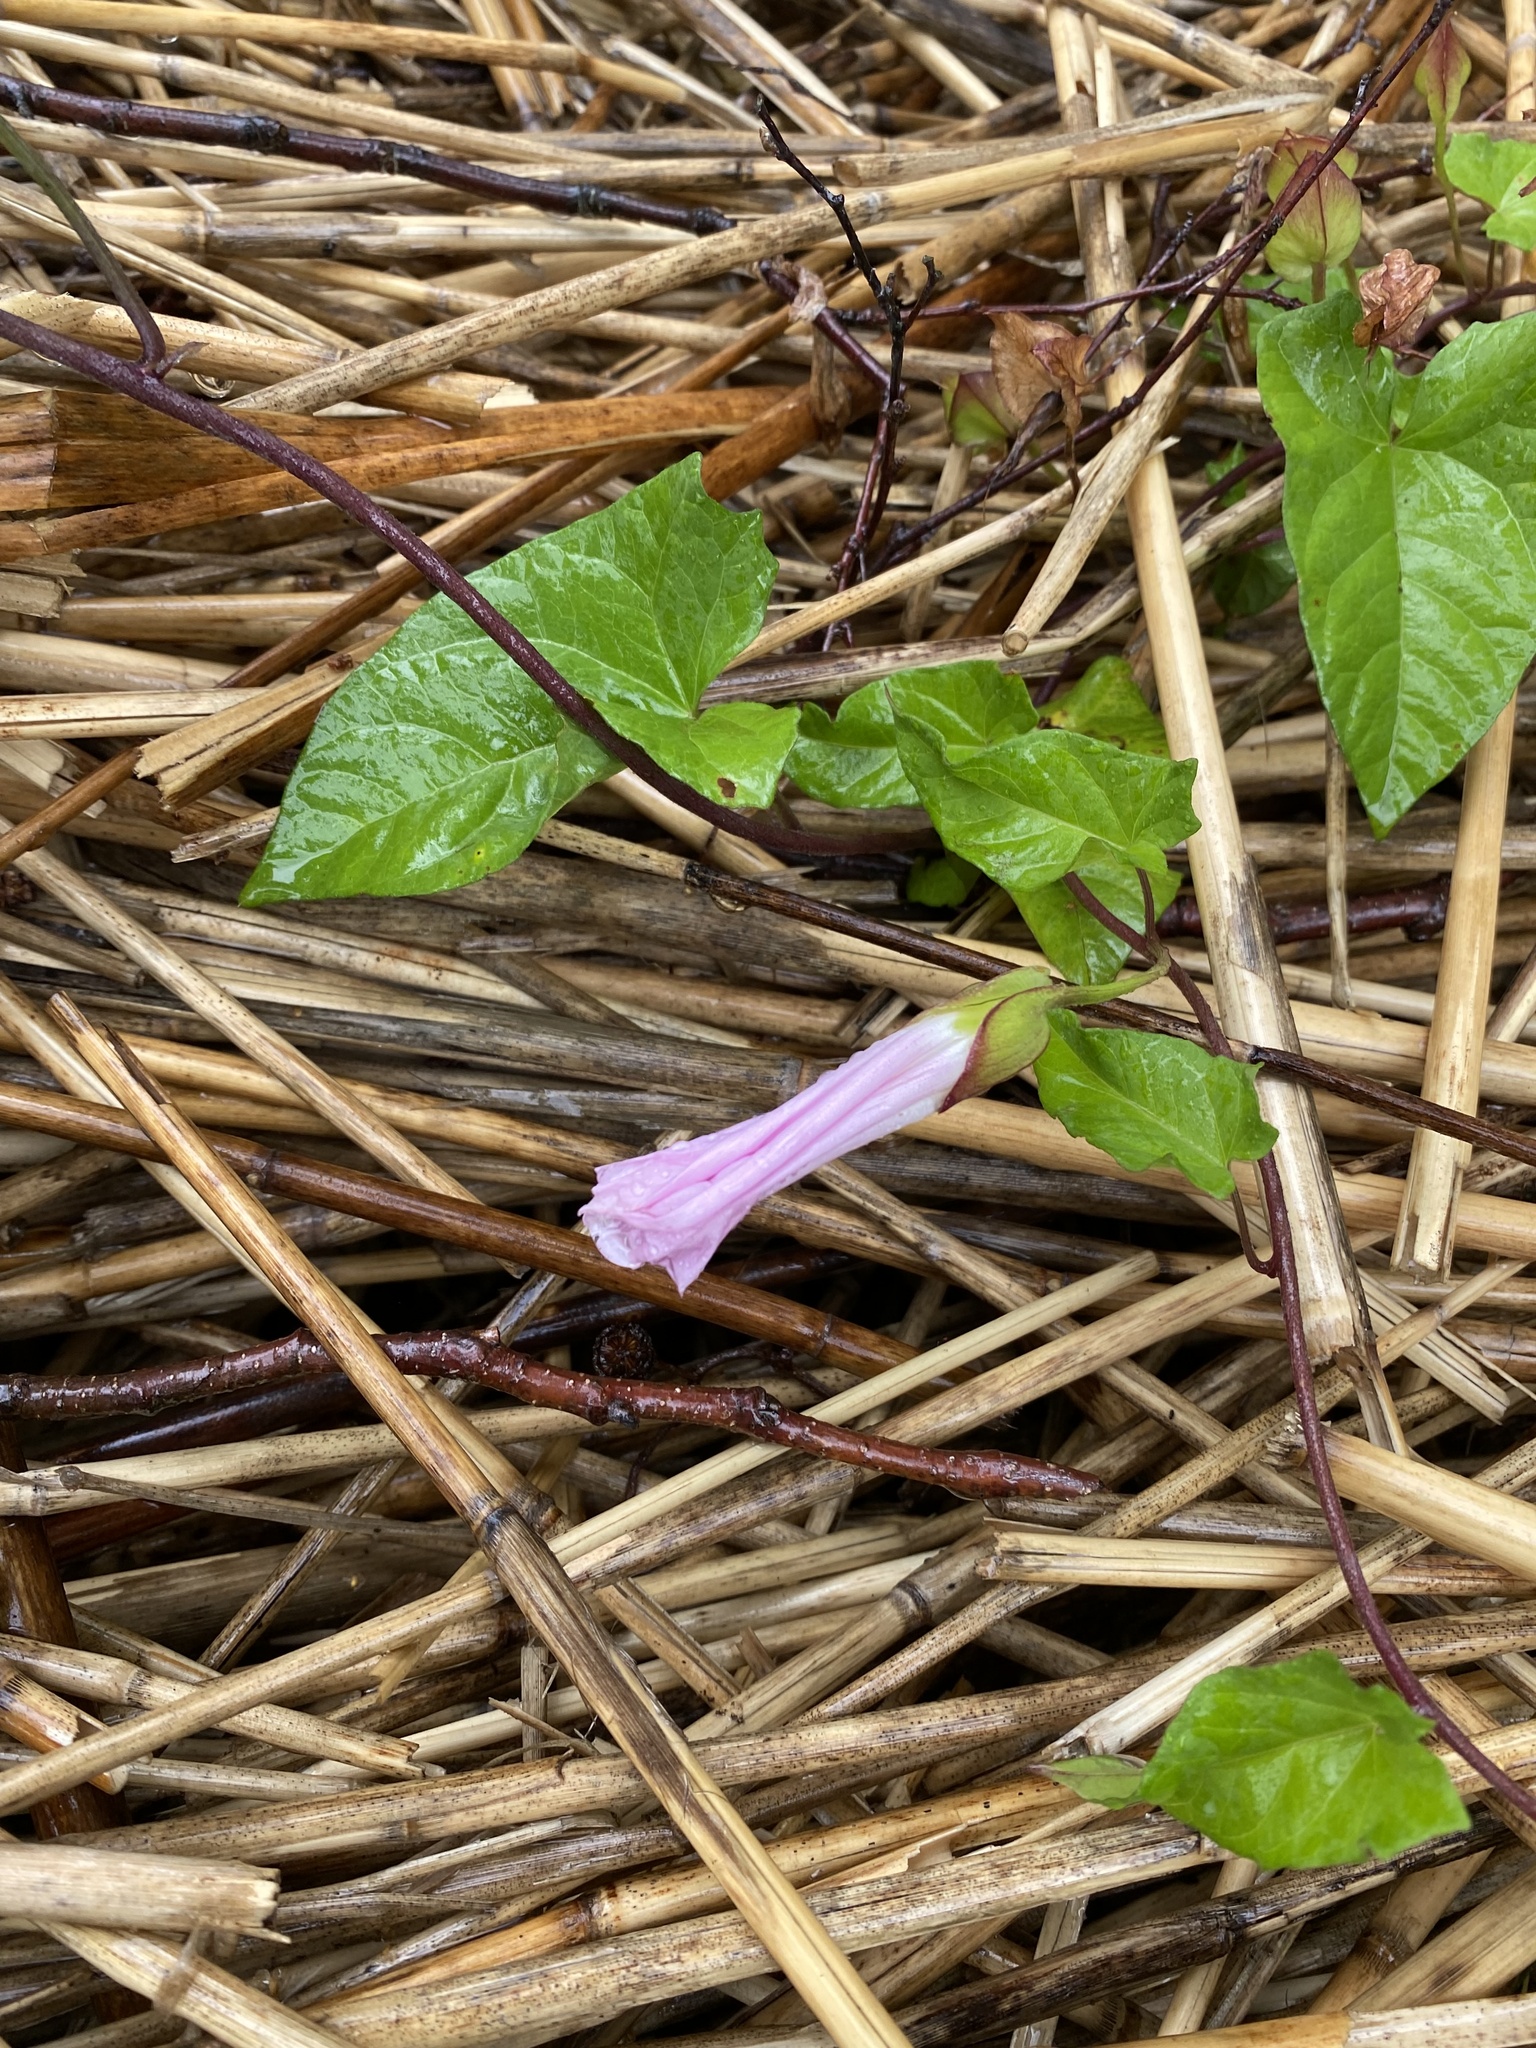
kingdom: Plantae
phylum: Tracheophyta
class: Magnoliopsida
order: Solanales
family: Convolvulaceae
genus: Calystegia
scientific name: Calystegia sepium
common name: Hedge bindweed
